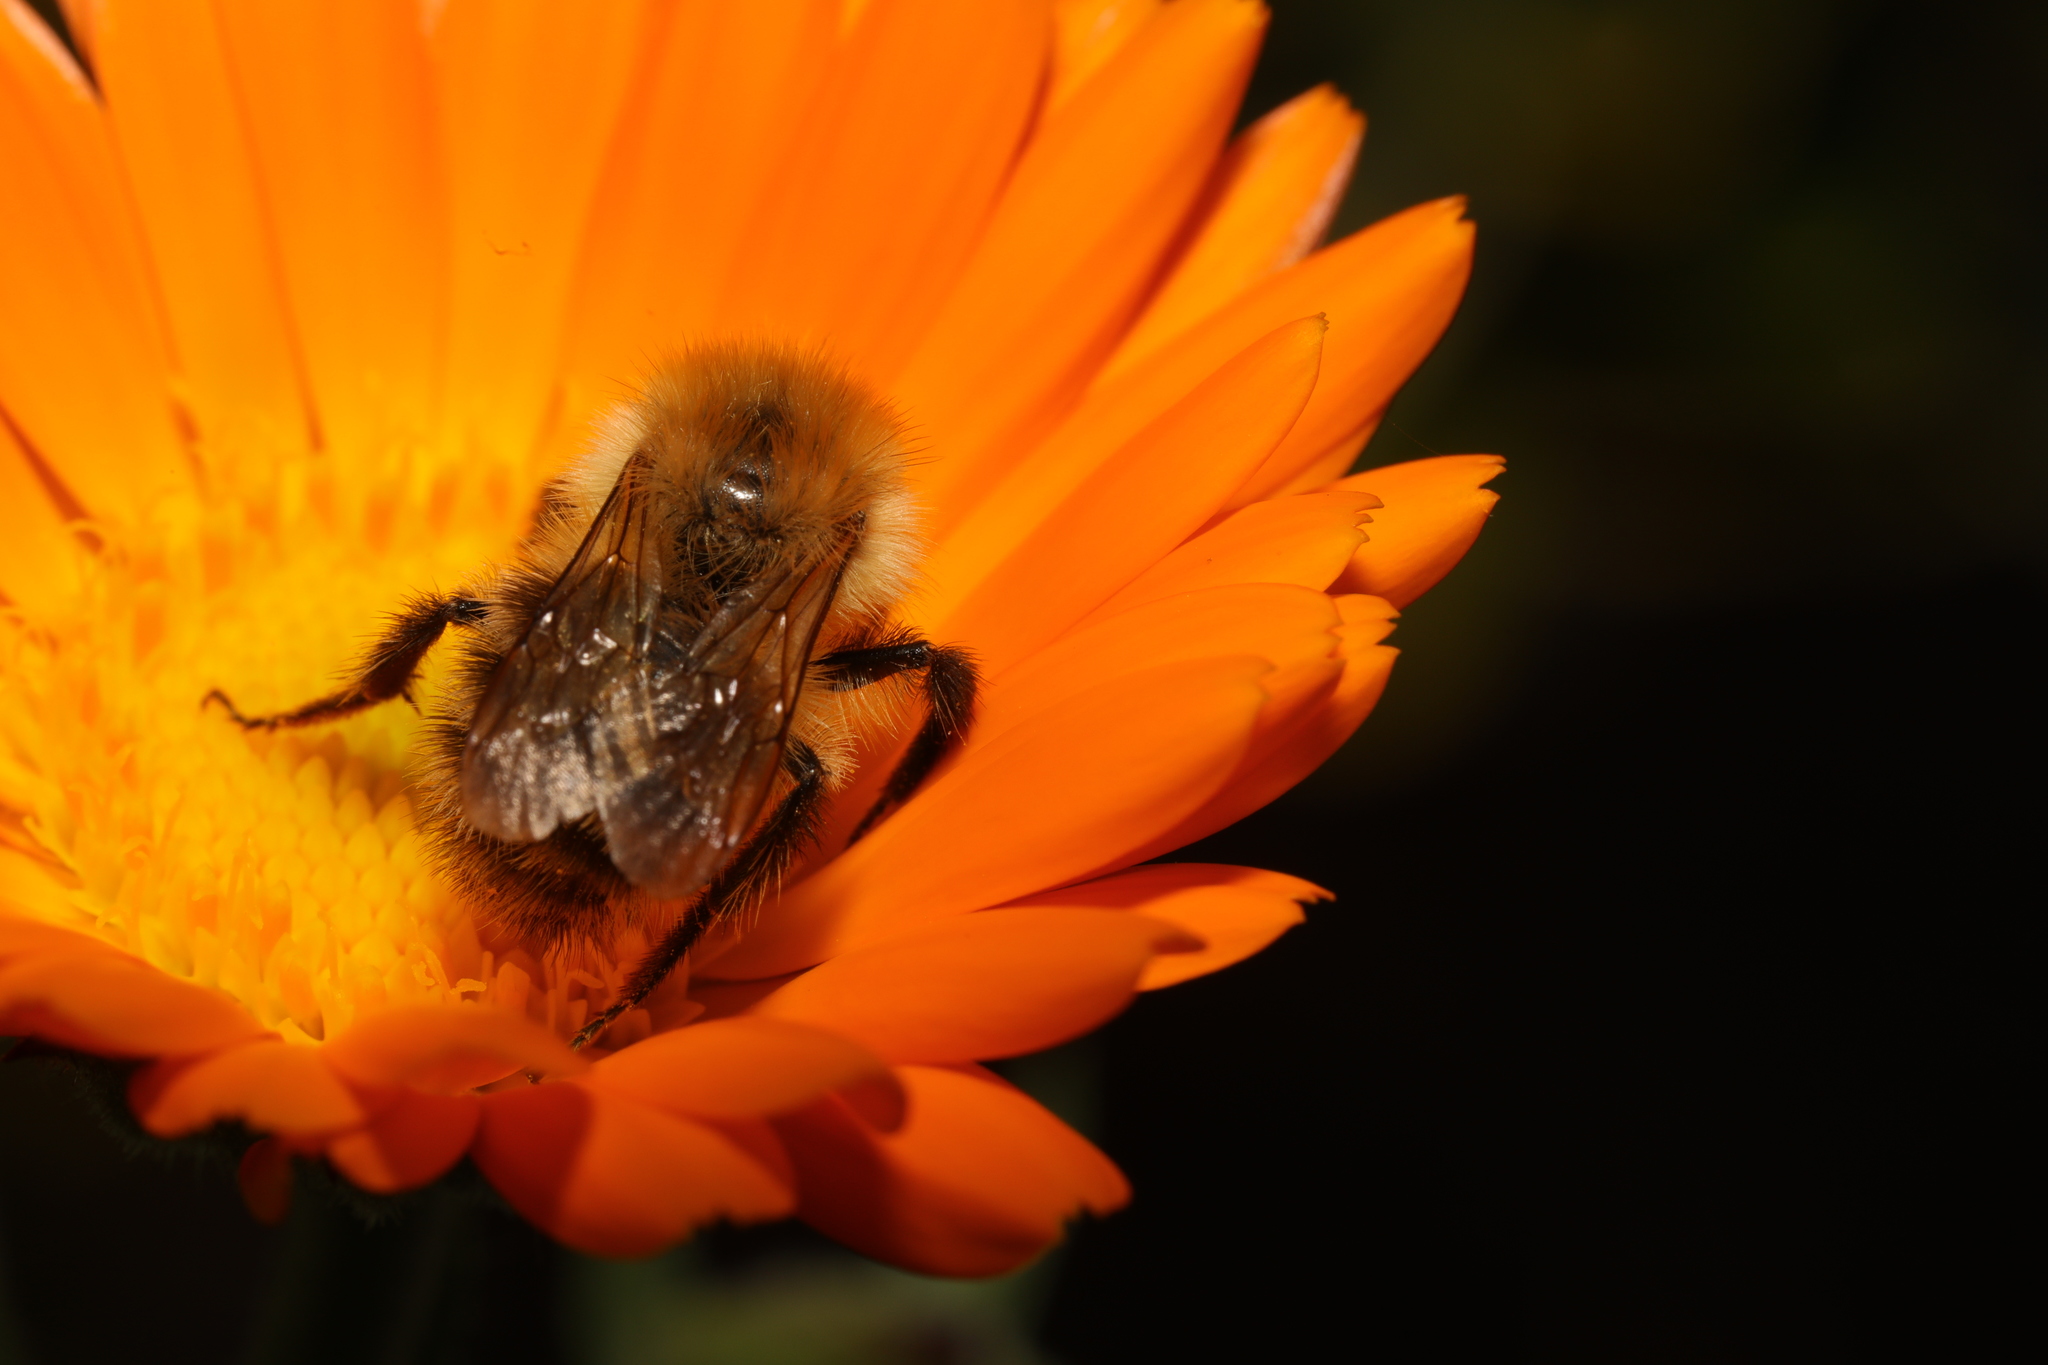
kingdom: Animalia
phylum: Arthropoda
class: Insecta
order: Hymenoptera
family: Apidae
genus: Bombus
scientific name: Bombus pascuorum
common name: Common carder bee
